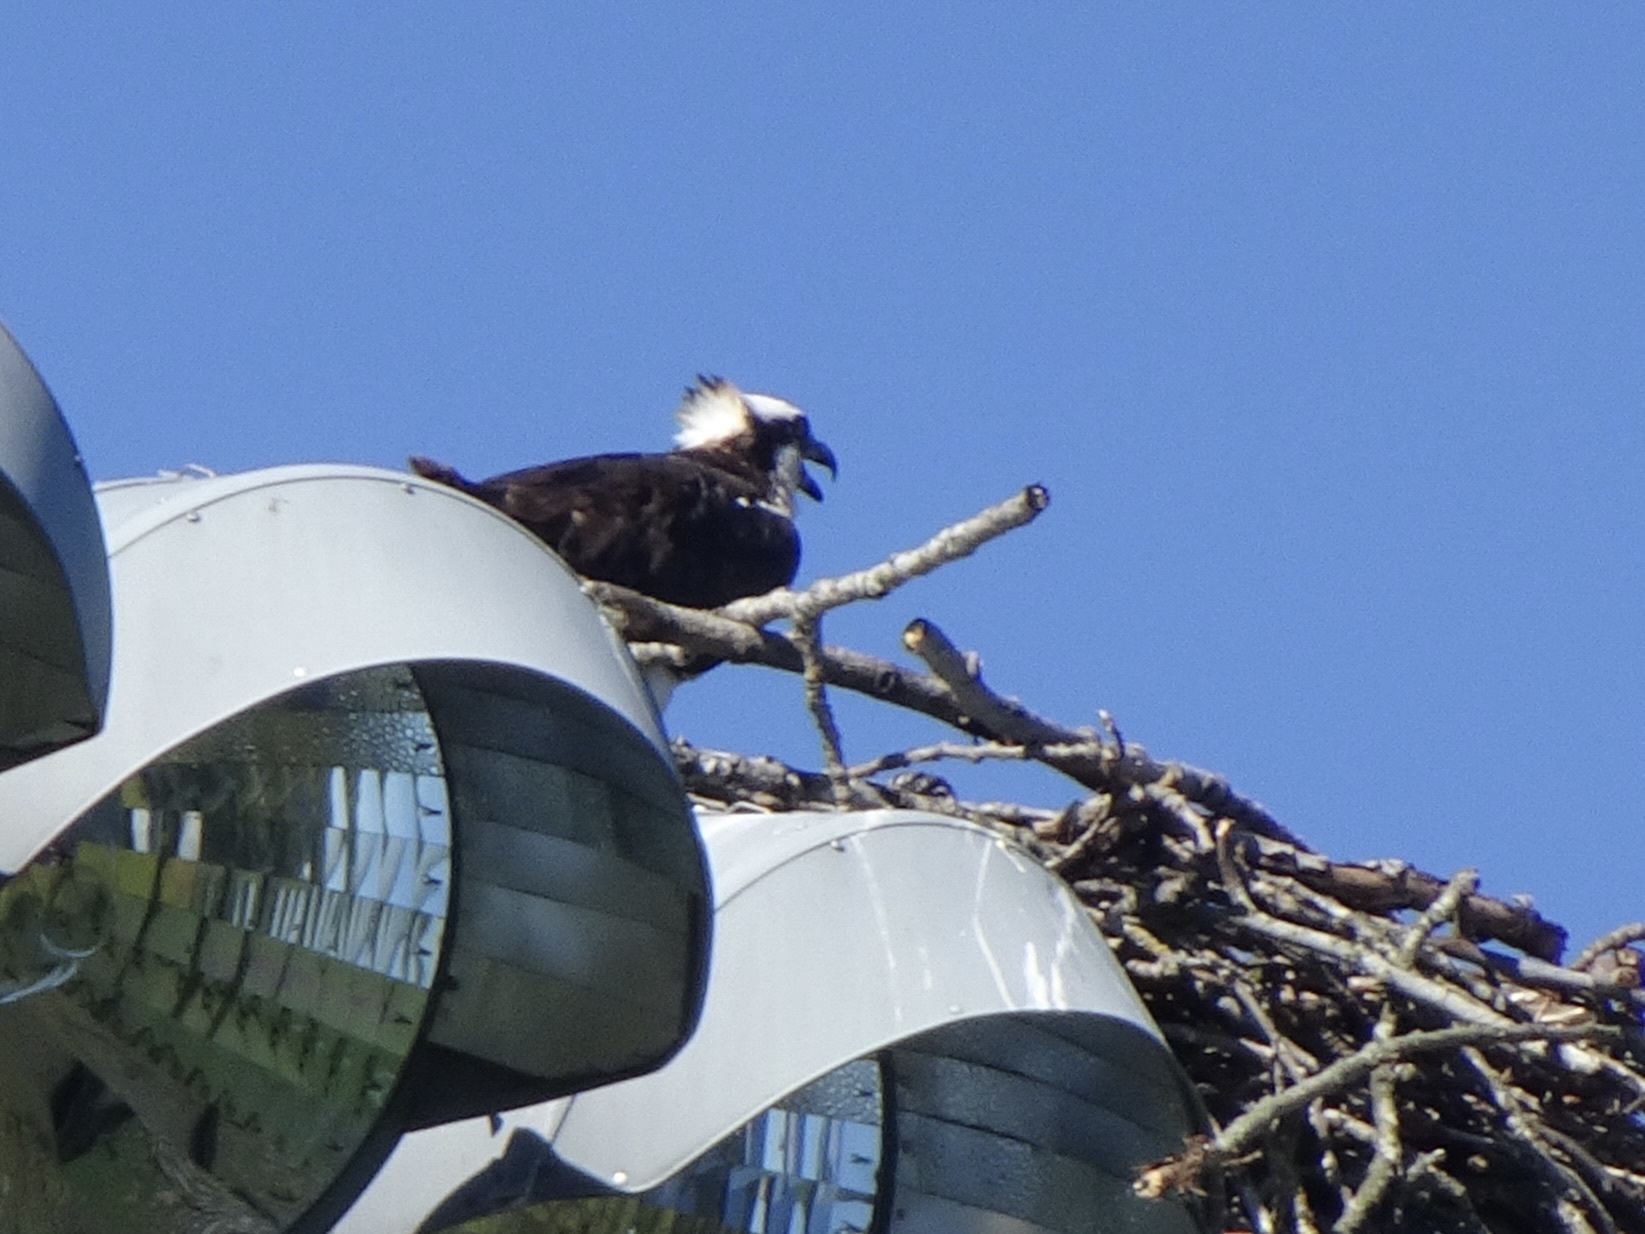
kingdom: Animalia
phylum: Chordata
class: Aves
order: Accipitriformes
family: Pandionidae
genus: Pandion
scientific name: Pandion haliaetus
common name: Osprey
